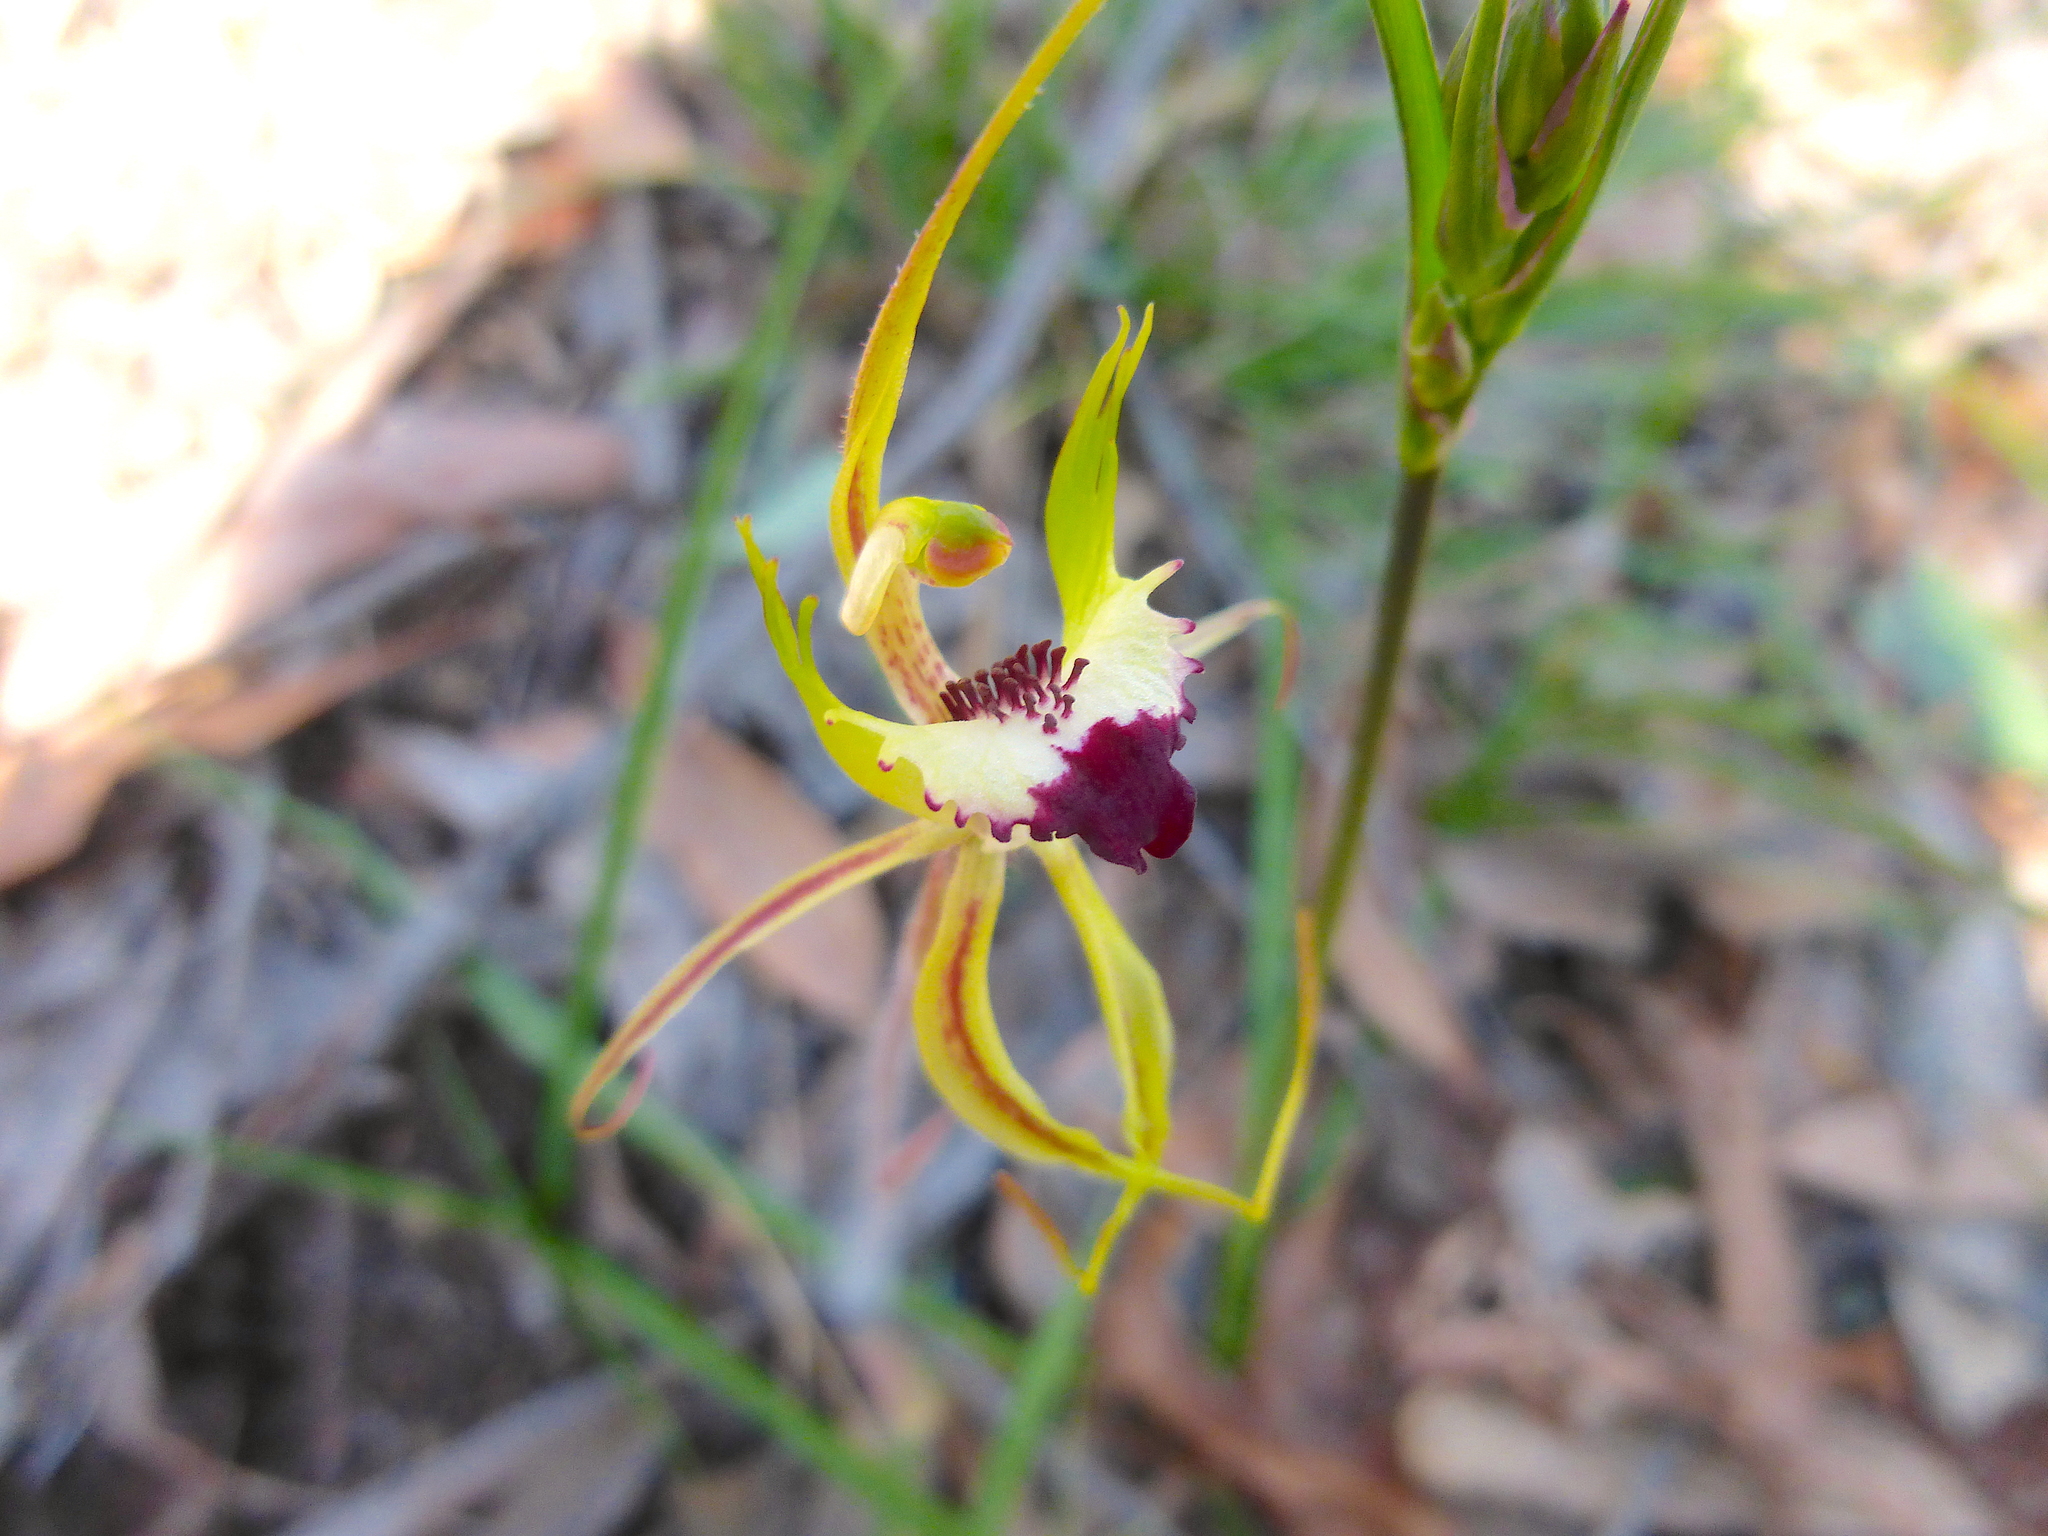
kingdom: Plantae
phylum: Tracheophyta
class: Liliopsida
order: Asparagales
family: Orchidaceae
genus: Caladenia
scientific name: Caladenia tentaculata
